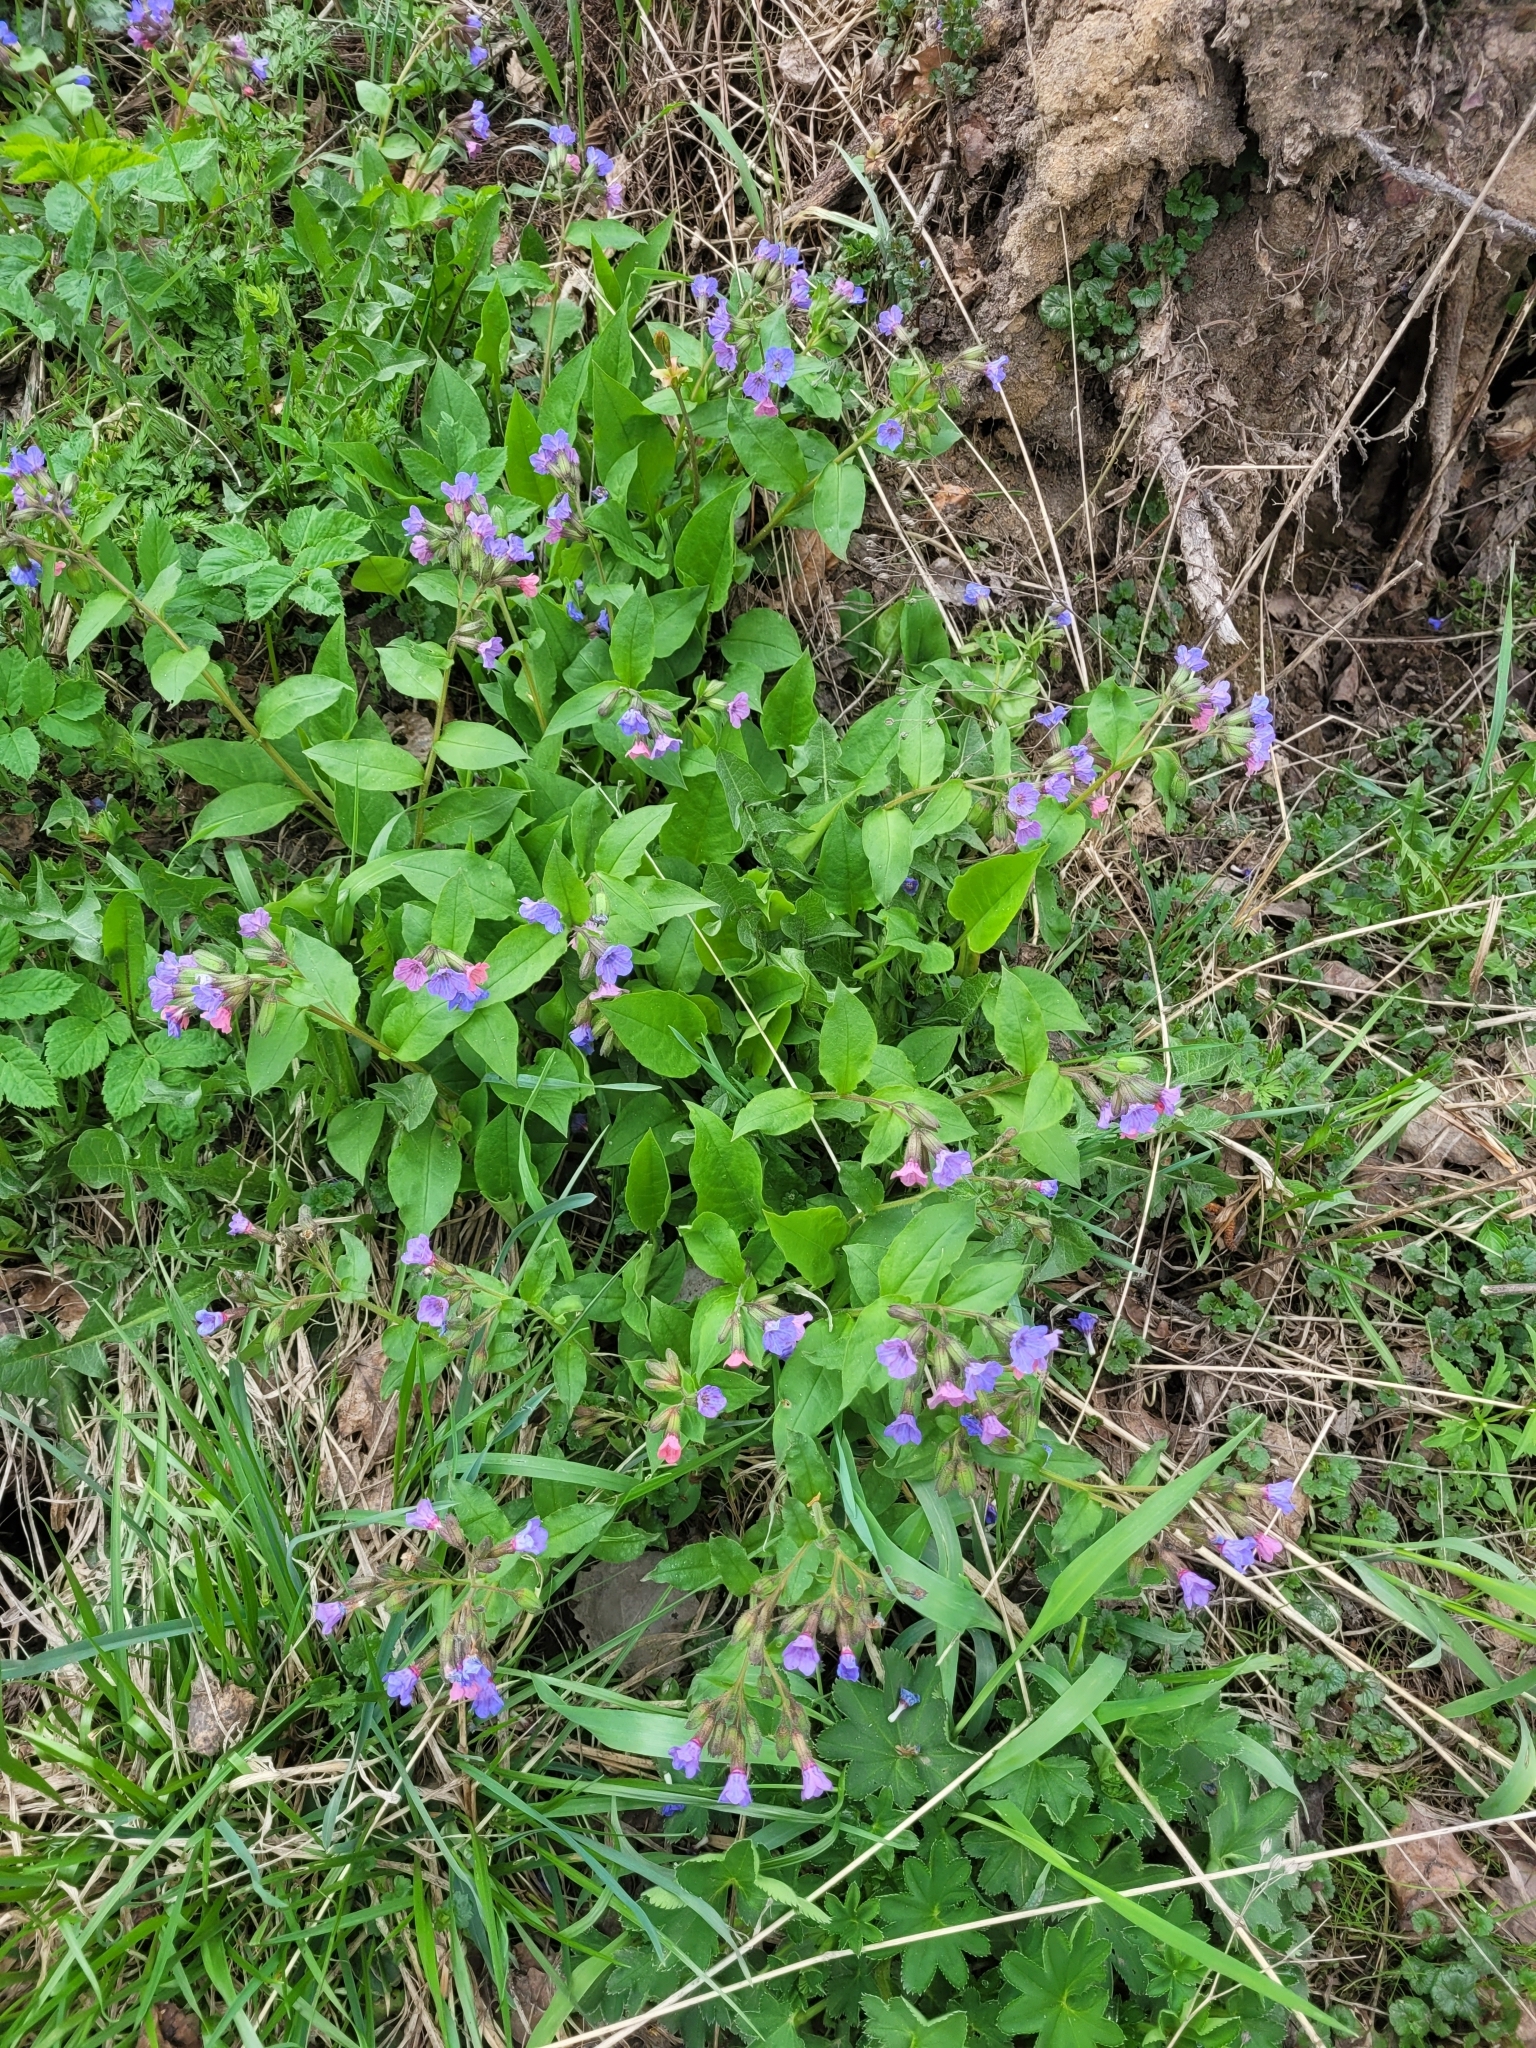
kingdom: Plantae
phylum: Tracheophyta
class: Magnoliopsida
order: Boraginales
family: Boraginaceae
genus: Pulmonaria
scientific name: Pulmonaria obscura
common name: Suffolk lungwort
